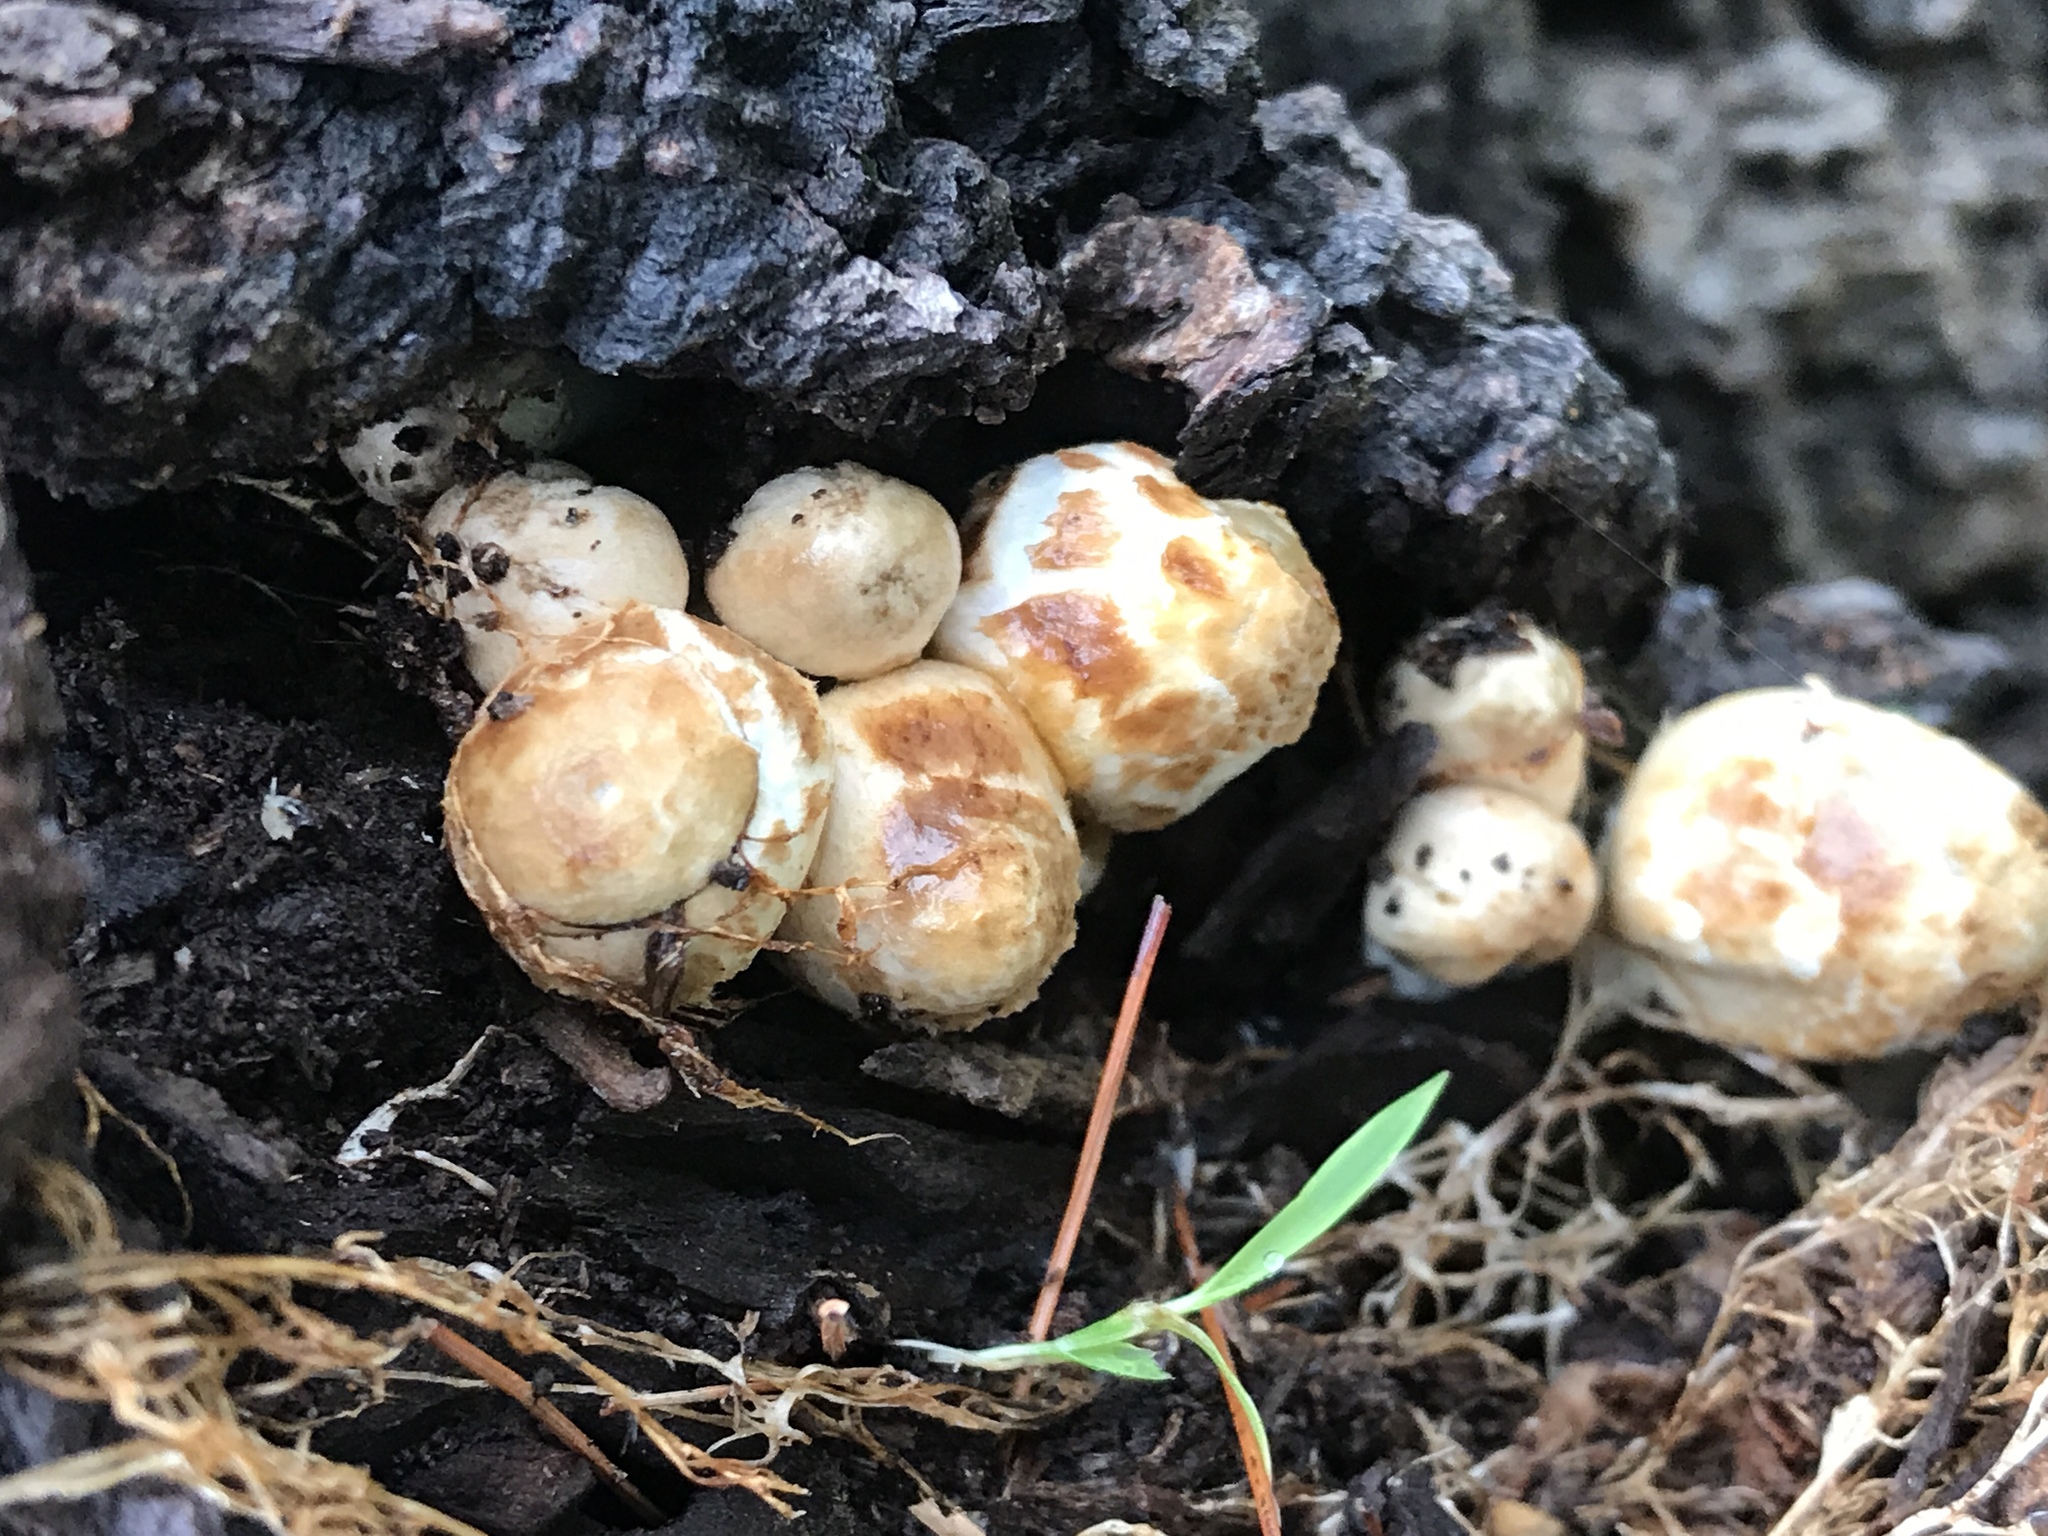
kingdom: Fungi
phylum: Basidiomycota
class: Agaricomycetes
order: Agaricales
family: Psathyrellaceae
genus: Coprinopsis
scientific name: Coprinopsis variegata
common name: Scaly ink cap
